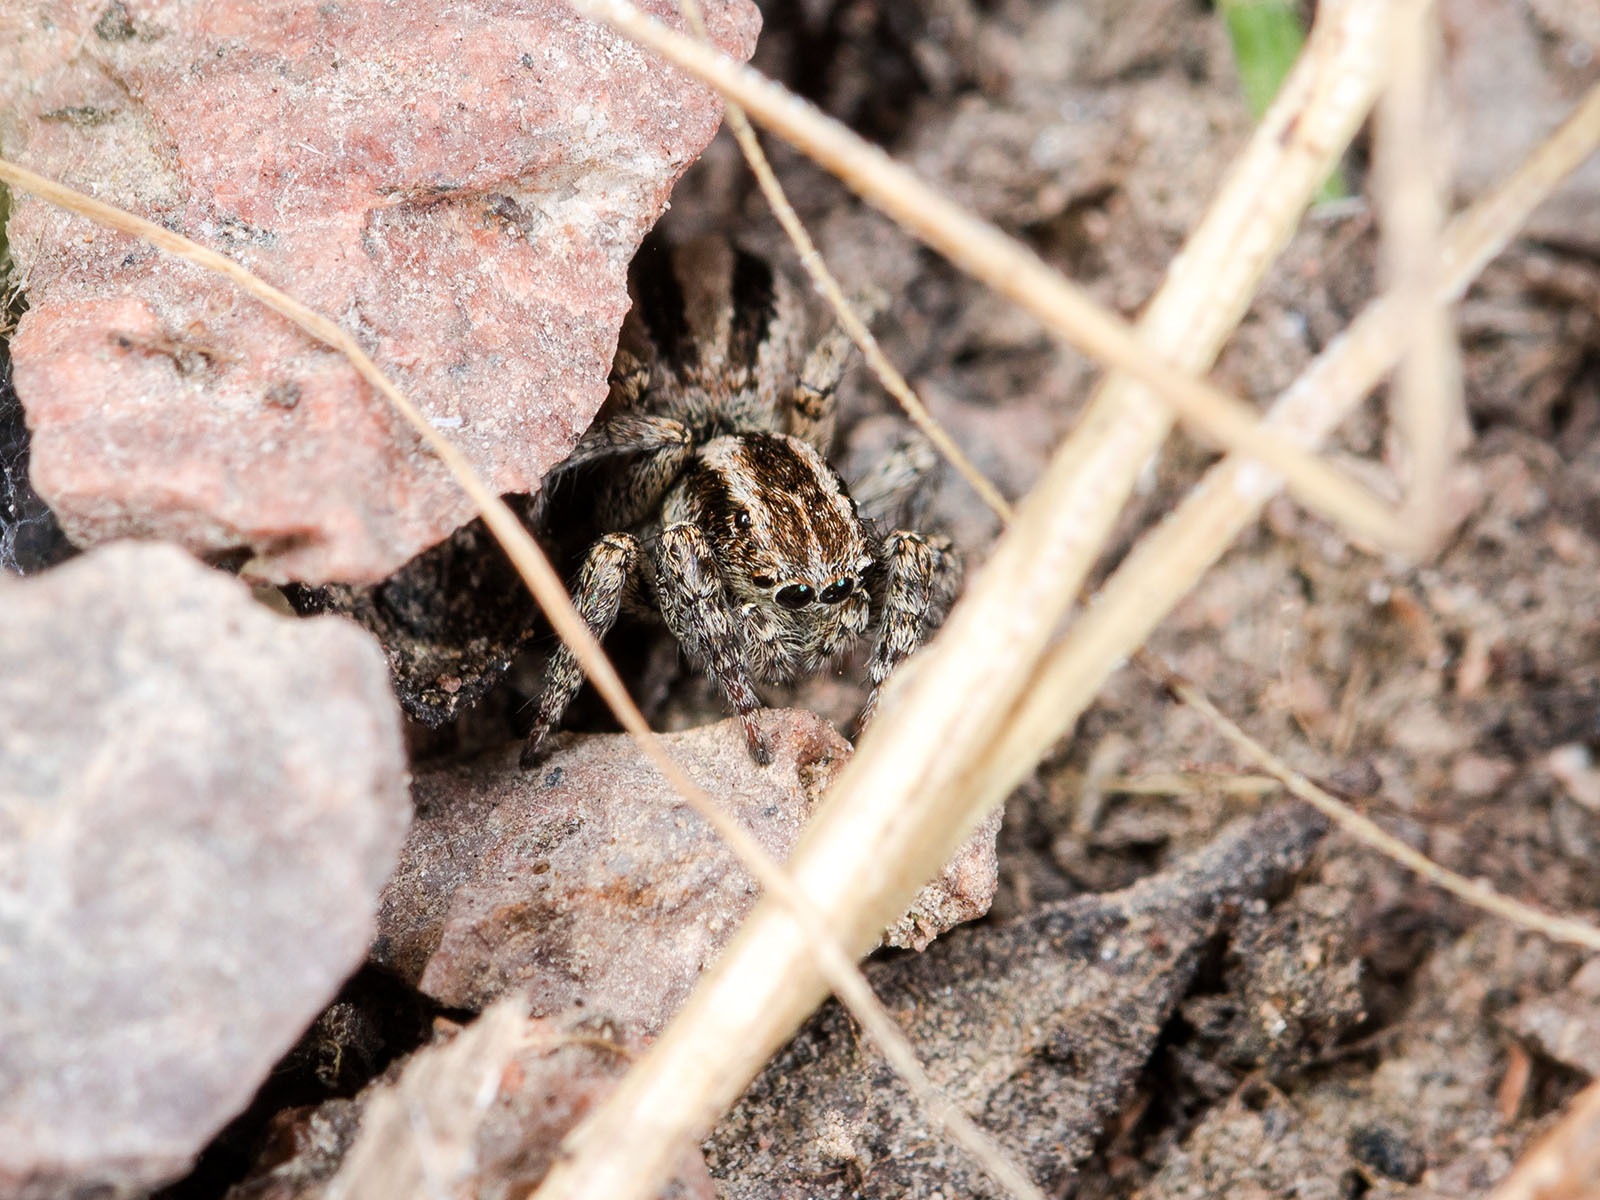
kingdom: Animalia
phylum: Arthropoda
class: Arachnida
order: Araneae
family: Salticidae
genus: Phlegra
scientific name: Phlegra andreevae
